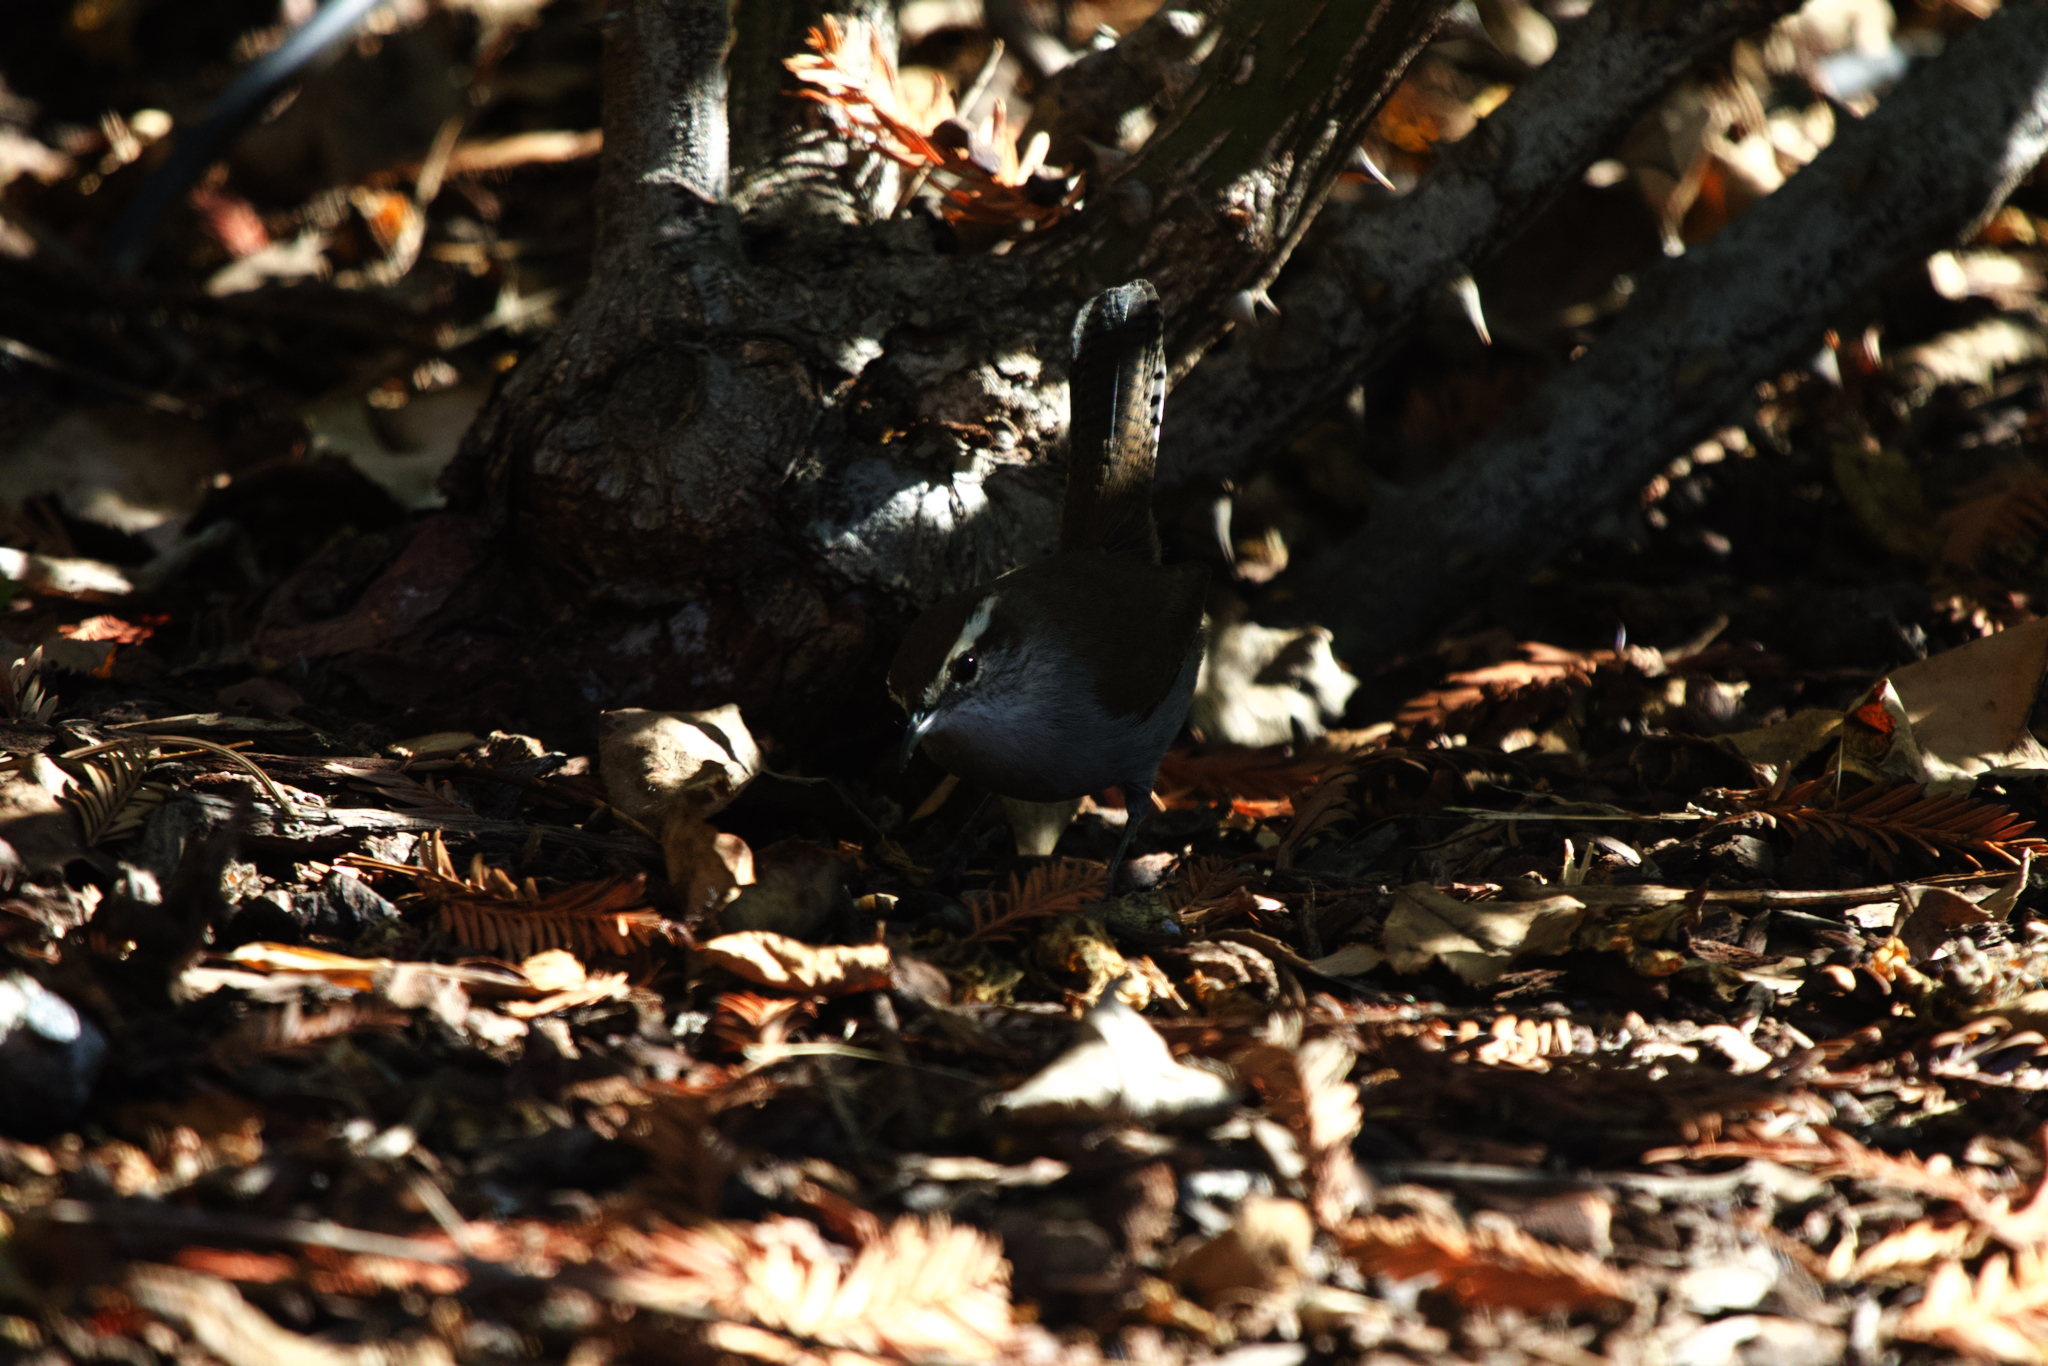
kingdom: Animalia
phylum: Chordata
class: Aves
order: Passeriformes
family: Troglodytidae
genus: Thryomanes
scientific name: Thryomanes bewickii
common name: Bewick's wren
